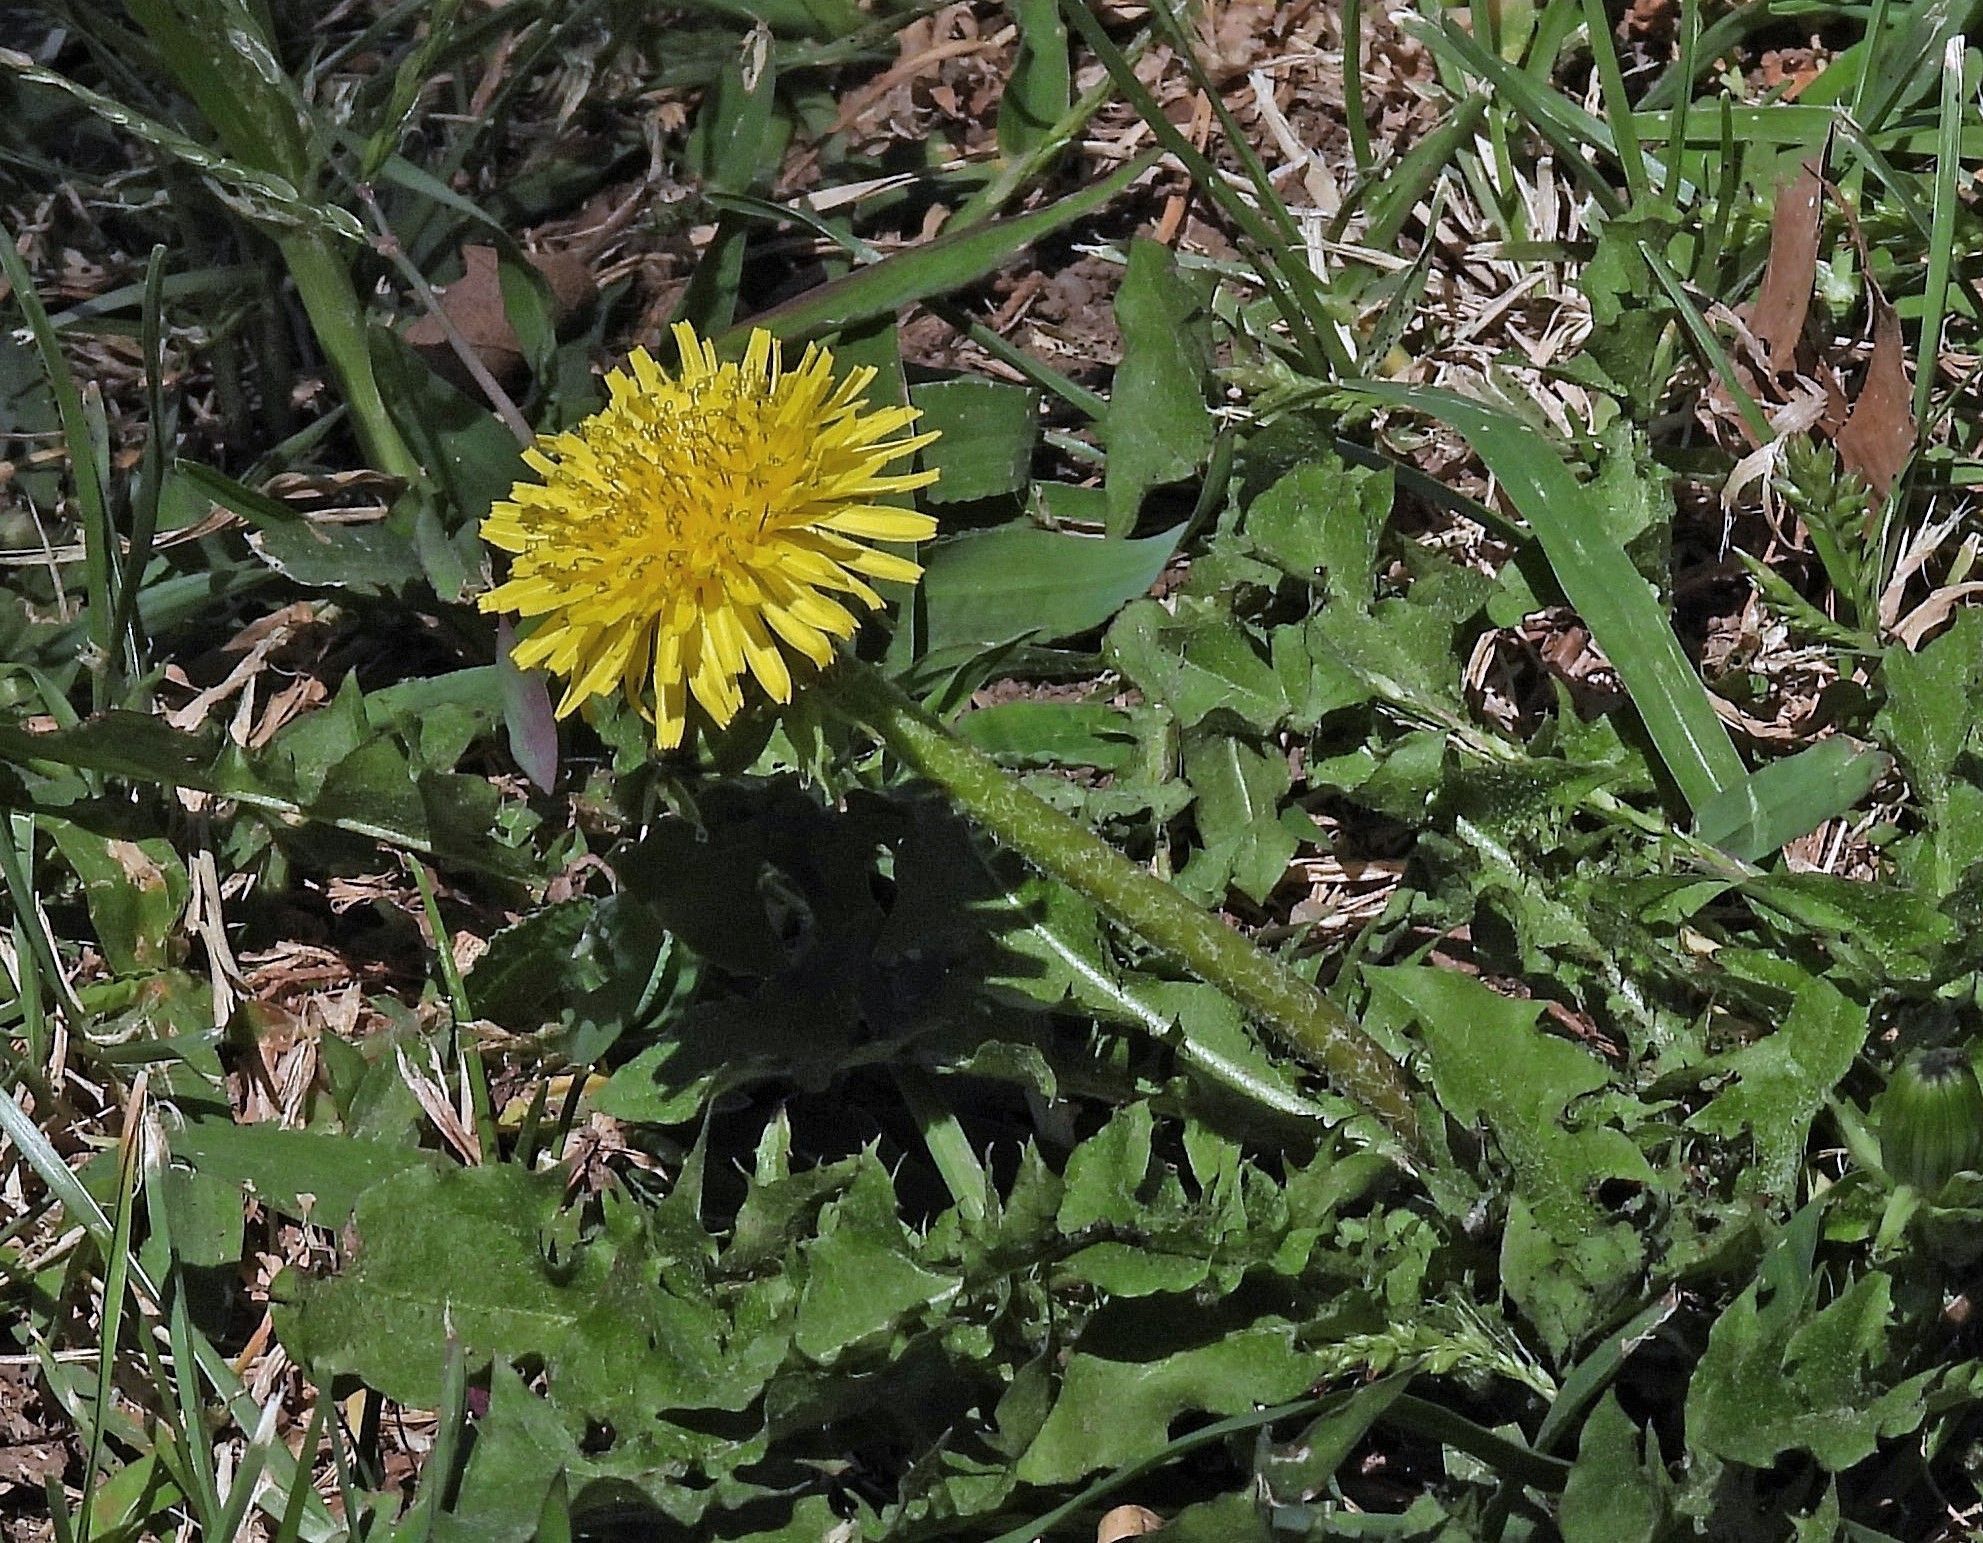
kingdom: Plantae
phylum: Tracheophyta
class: Magnoliopsida
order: Asterales
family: Asteraceae
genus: Taraxacum
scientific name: Taraxacum officinale
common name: Common dandelion
